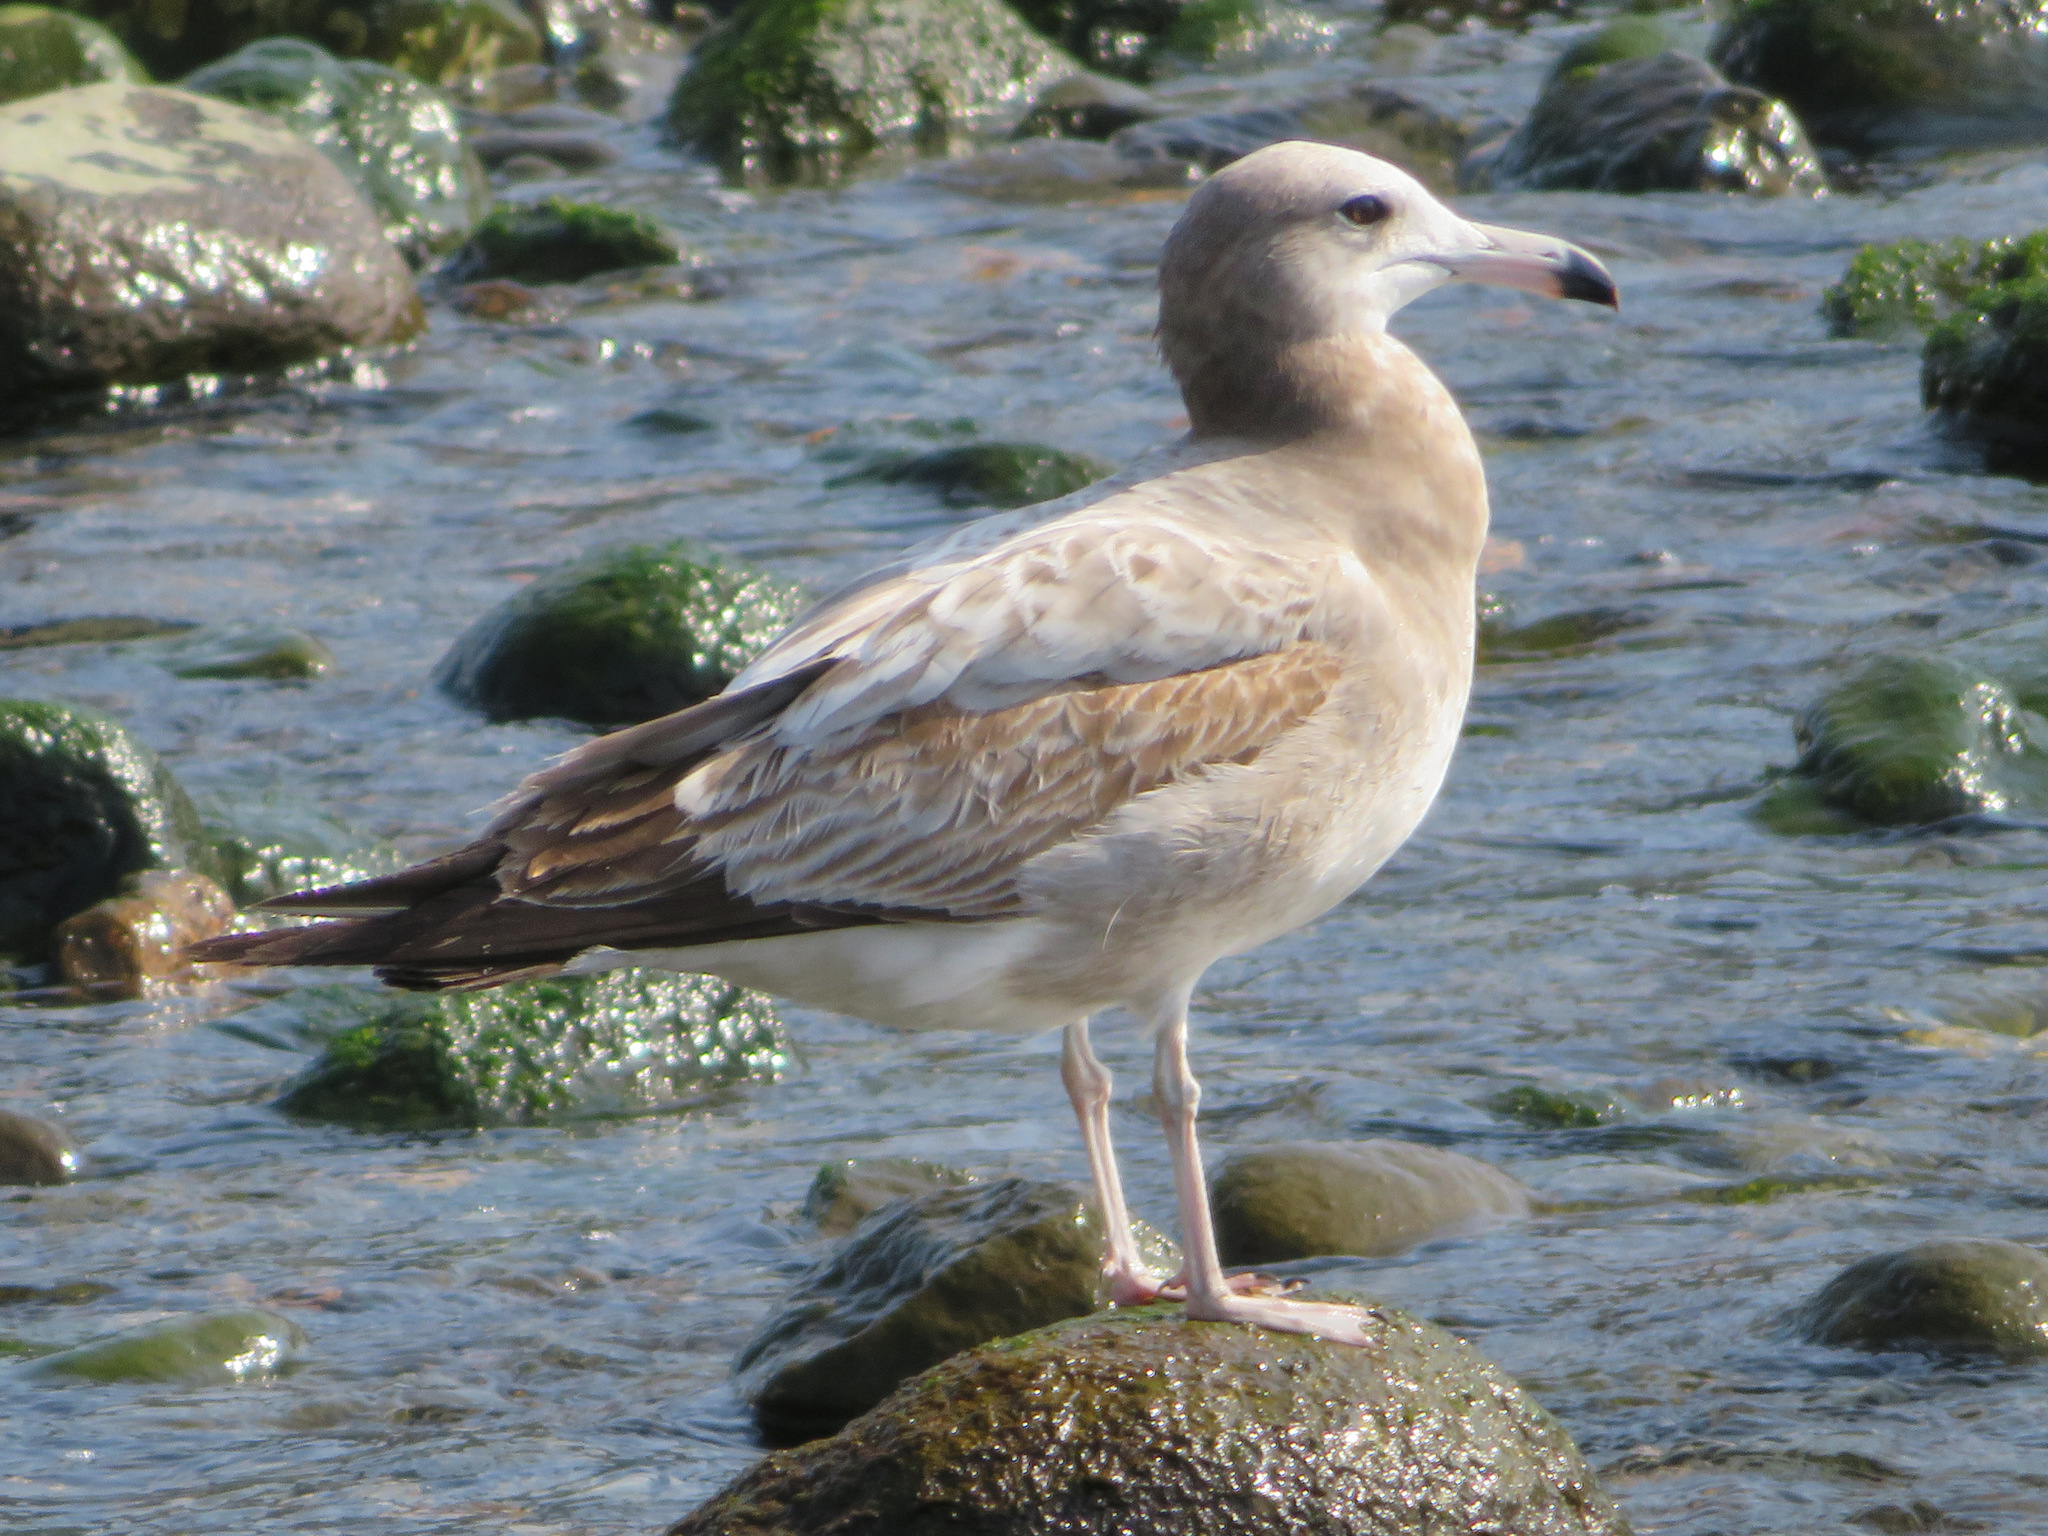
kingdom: Animalia
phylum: Chordata
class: Aves
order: Charadriiformes
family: Laridae
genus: Larus
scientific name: Larus crassirostris
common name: Black-tailed gull
